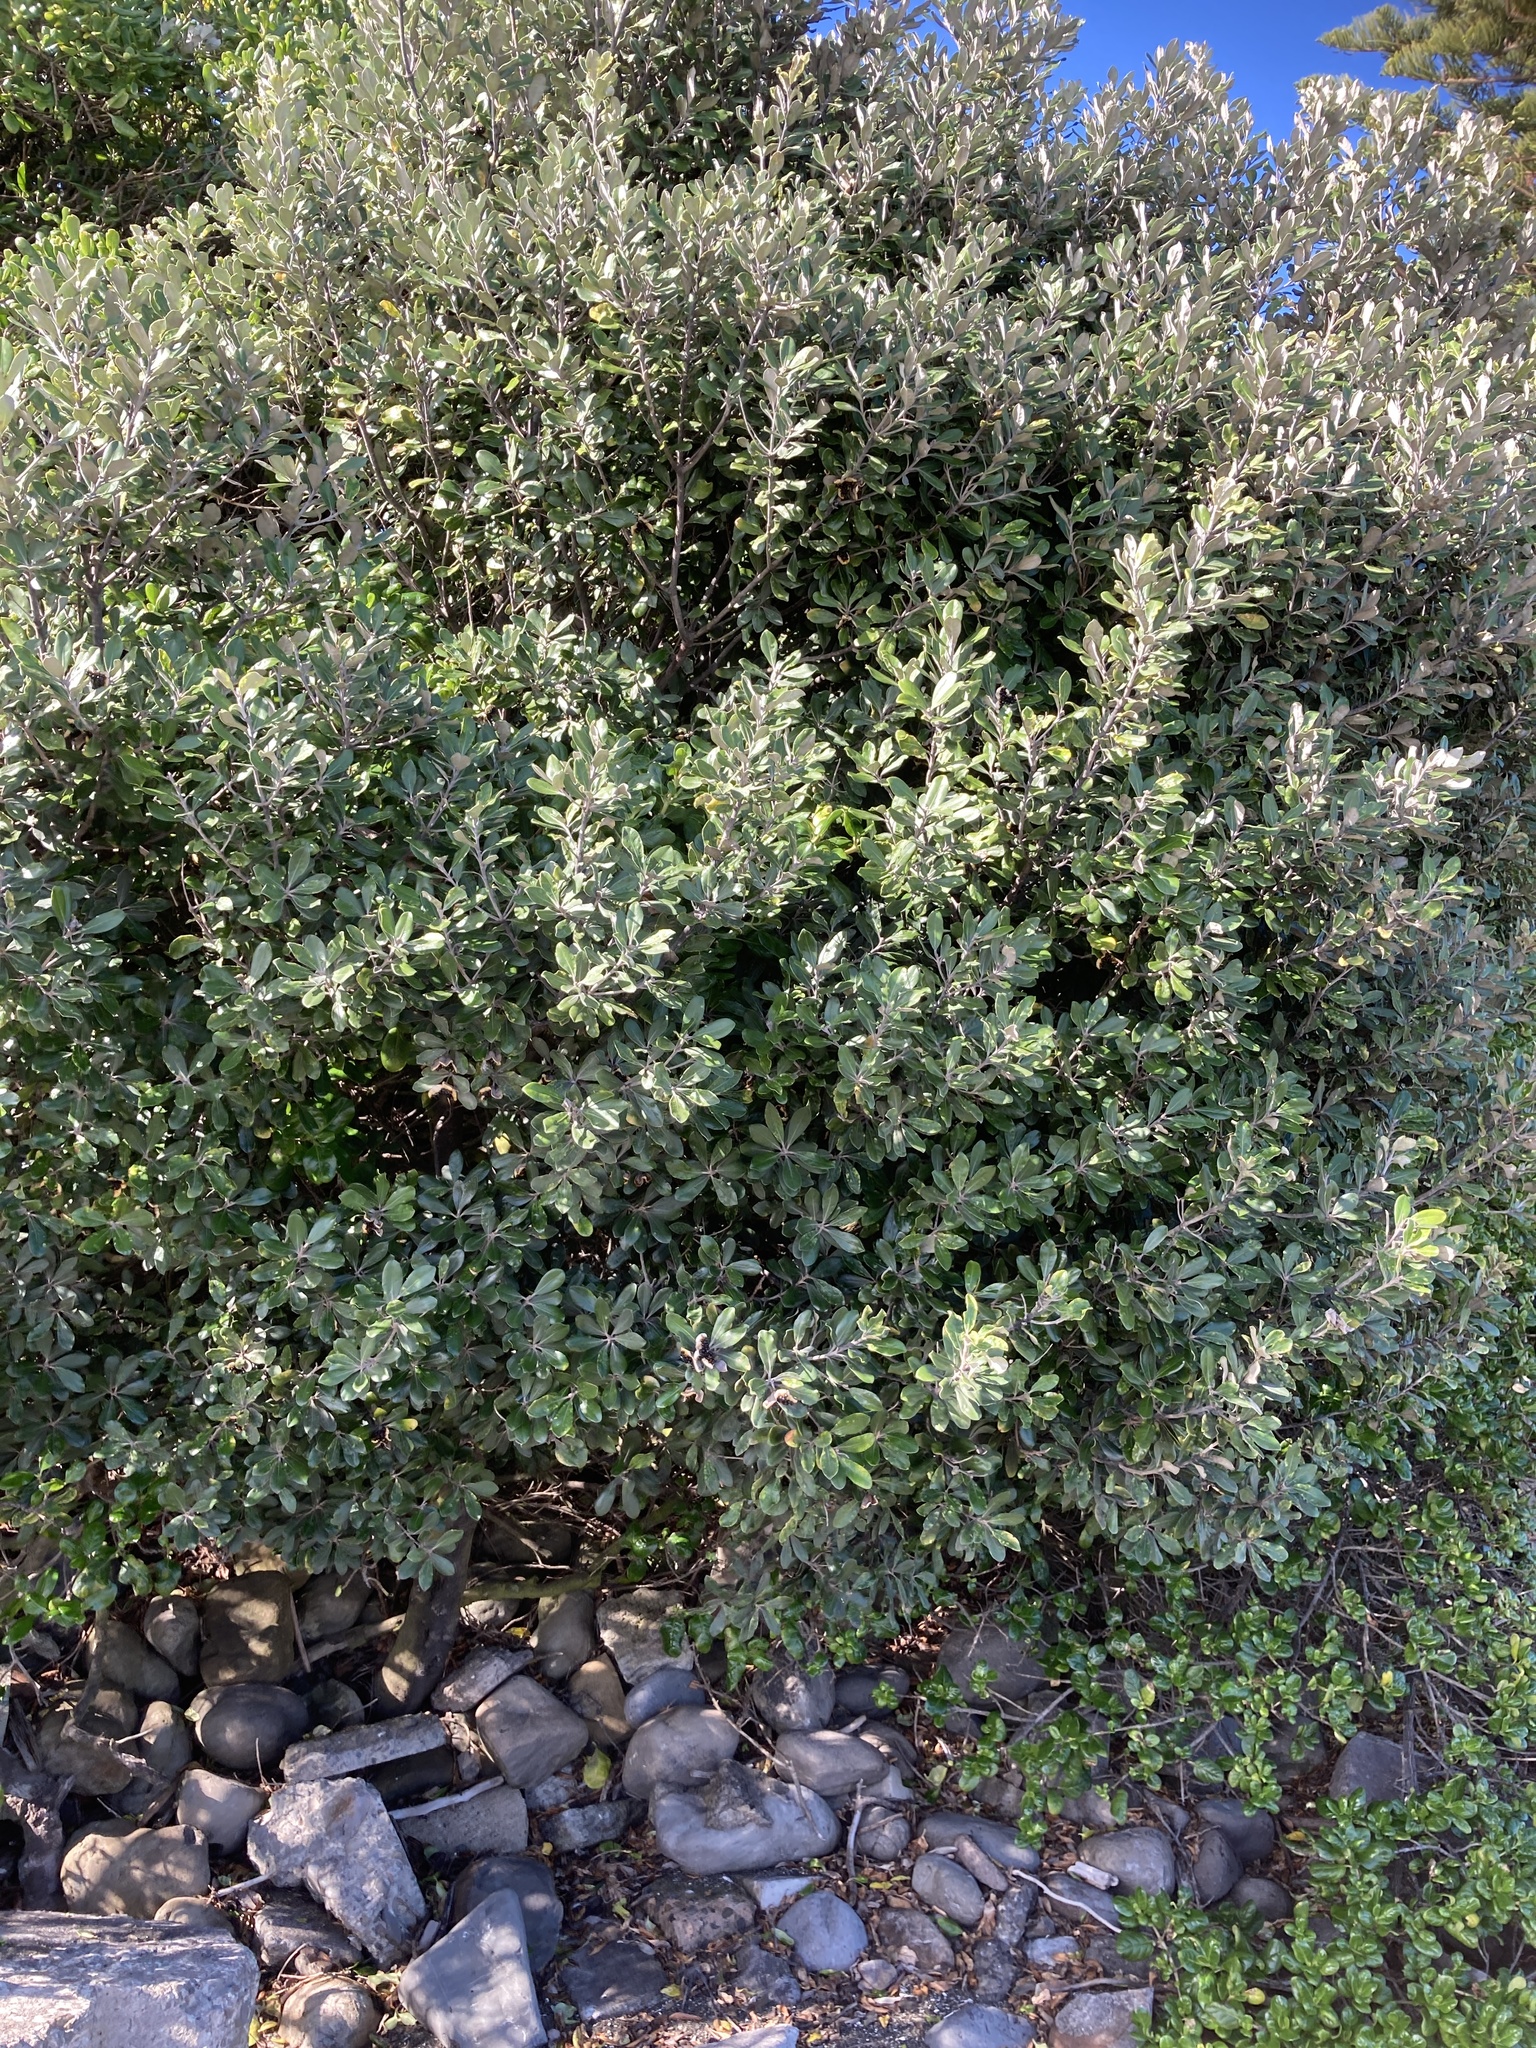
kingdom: Plantae
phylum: Tracheophyta
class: Magnoliopsida
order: Apiales
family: Pittosporaceae
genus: Pittosporum
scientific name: Pittosporum crassifolium
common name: Karo
